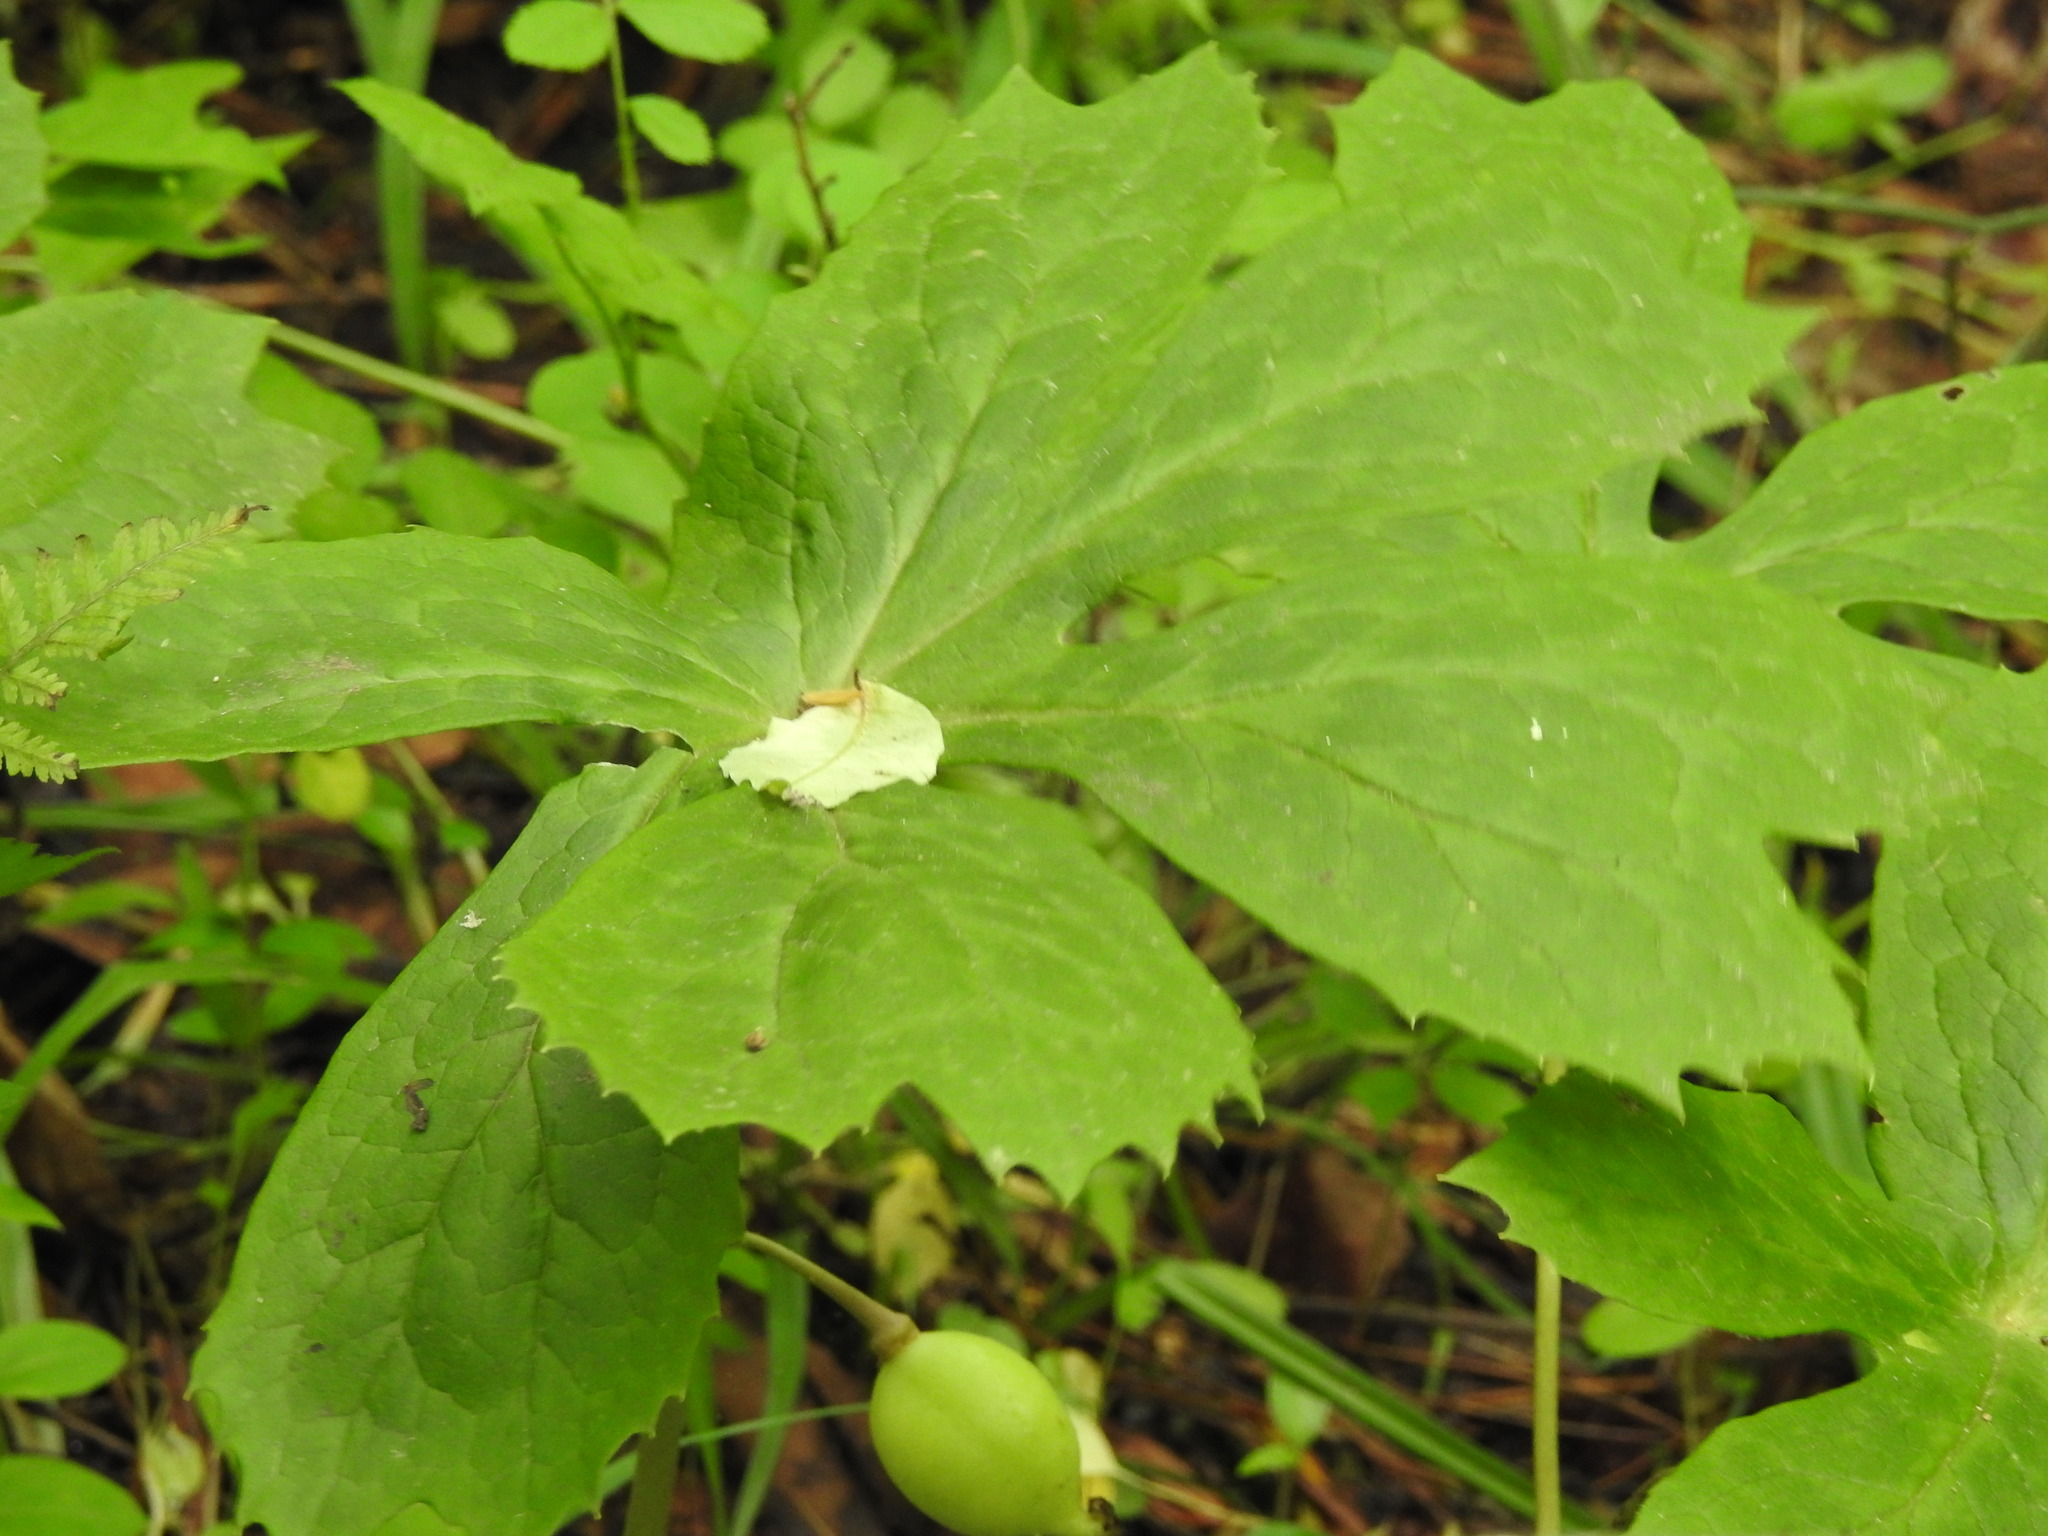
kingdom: Plantae
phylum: Tracheophyta
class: Magnoliopsida
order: Ranunculales
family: Berberidaceae
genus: Podophyllum
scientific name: Podophyllum peltatum
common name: Wild mandrake
